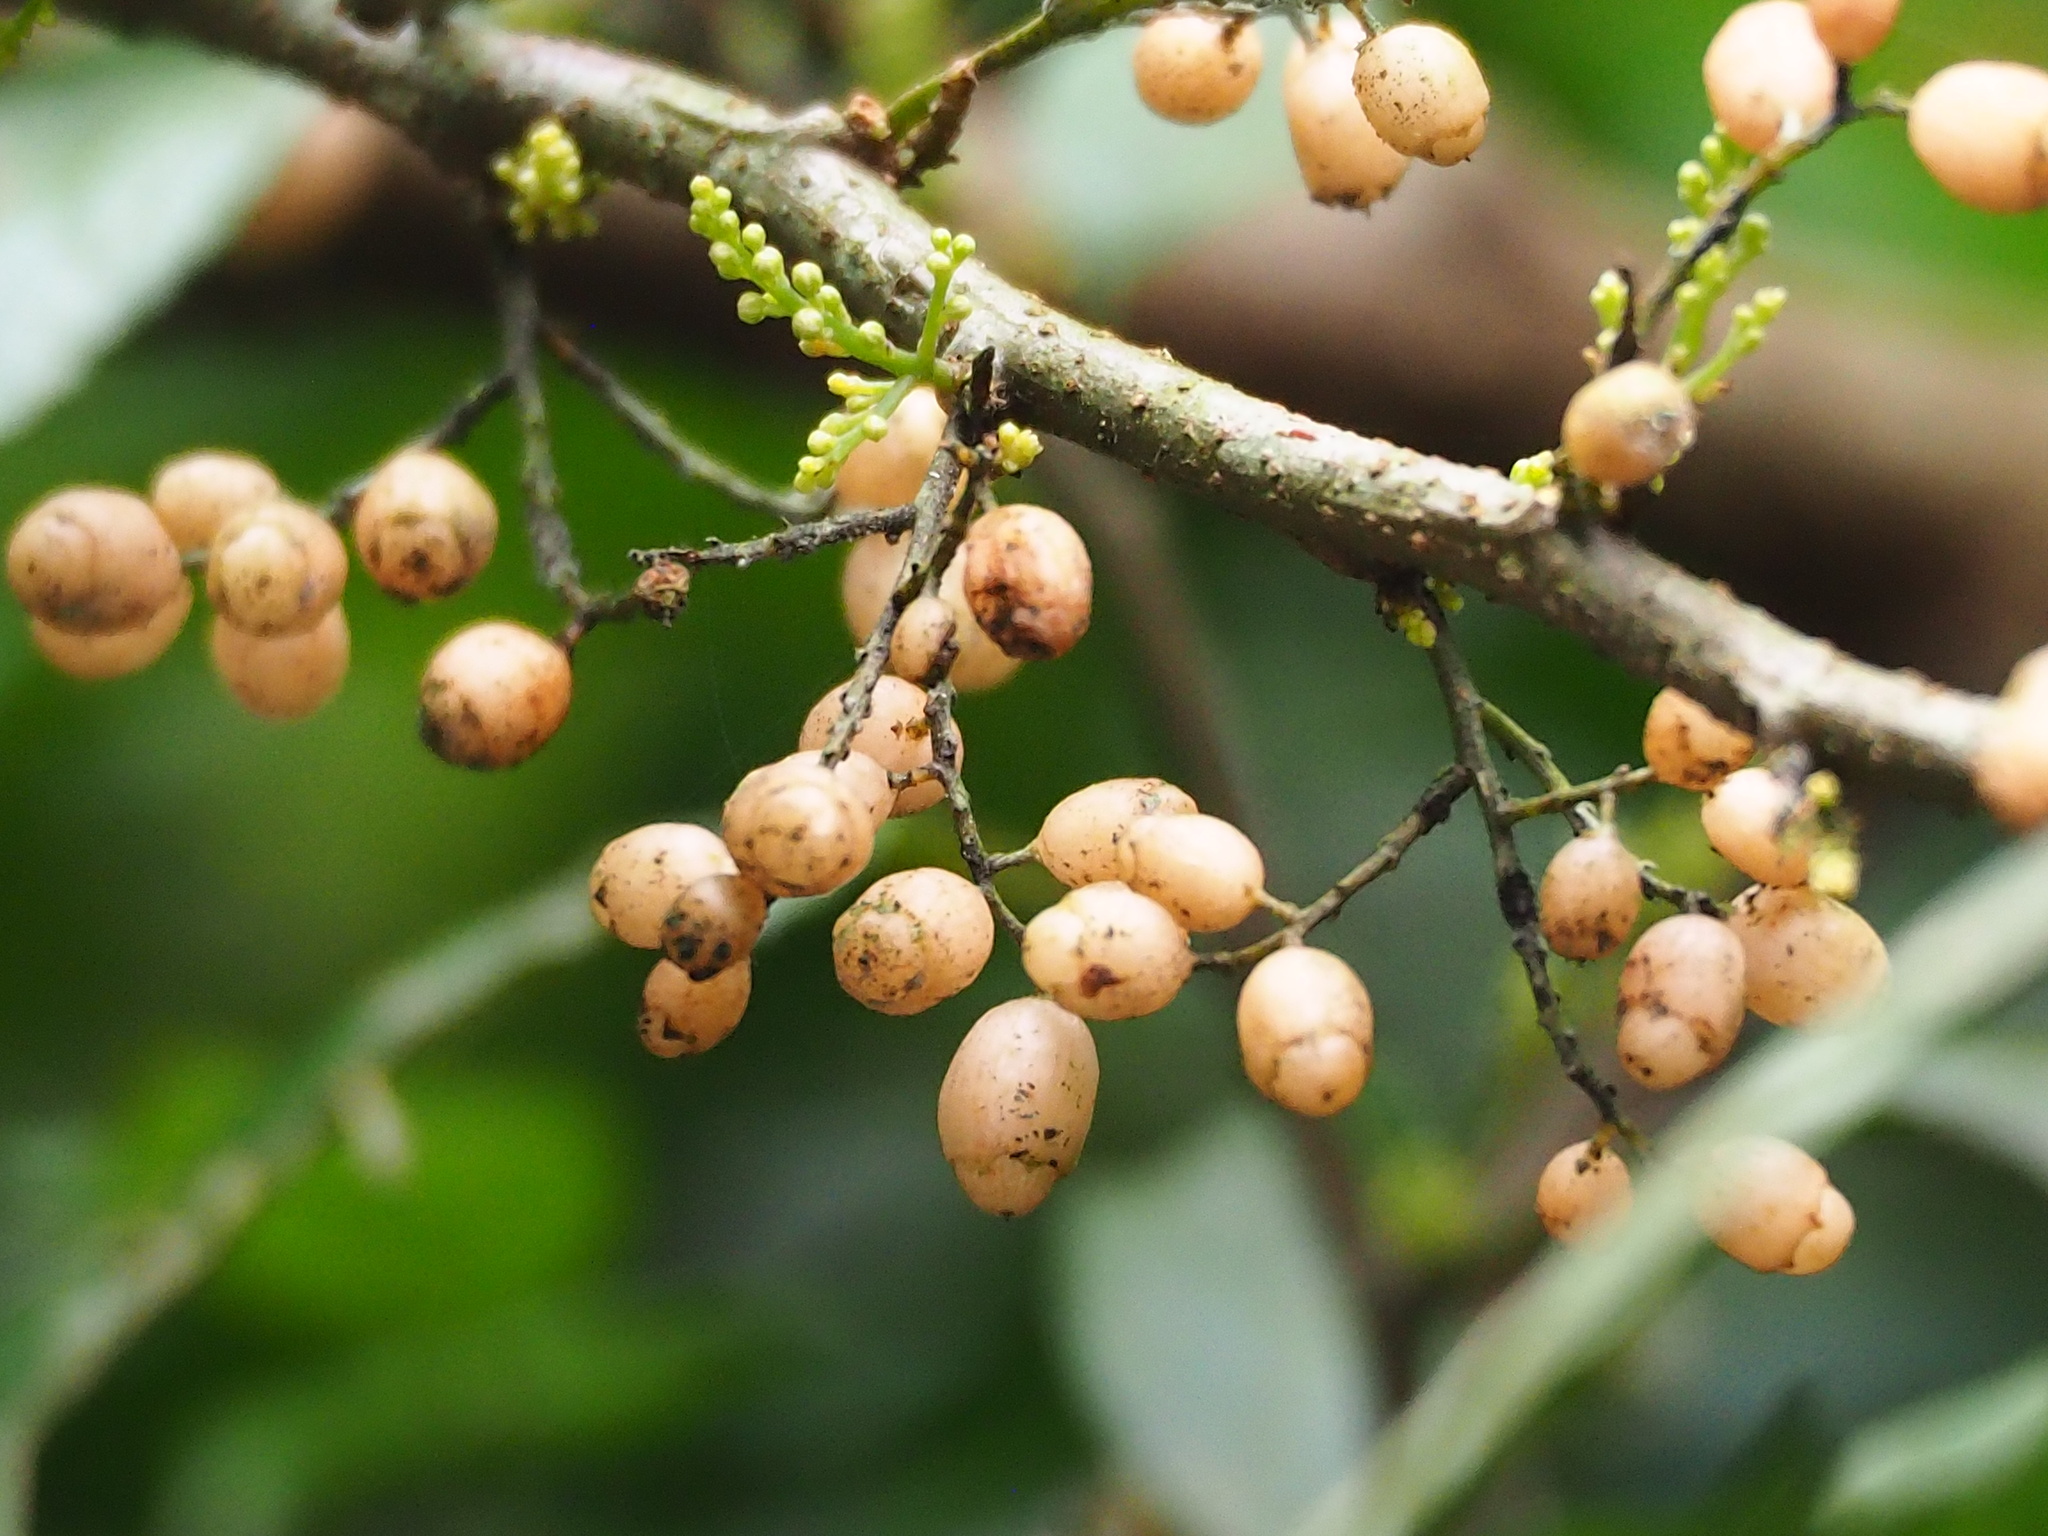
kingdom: Plantae
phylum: Tracheophyta
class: Magnoliopsida
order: Ericales
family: Primulaceae
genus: Maesa
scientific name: Maesa perlaria
